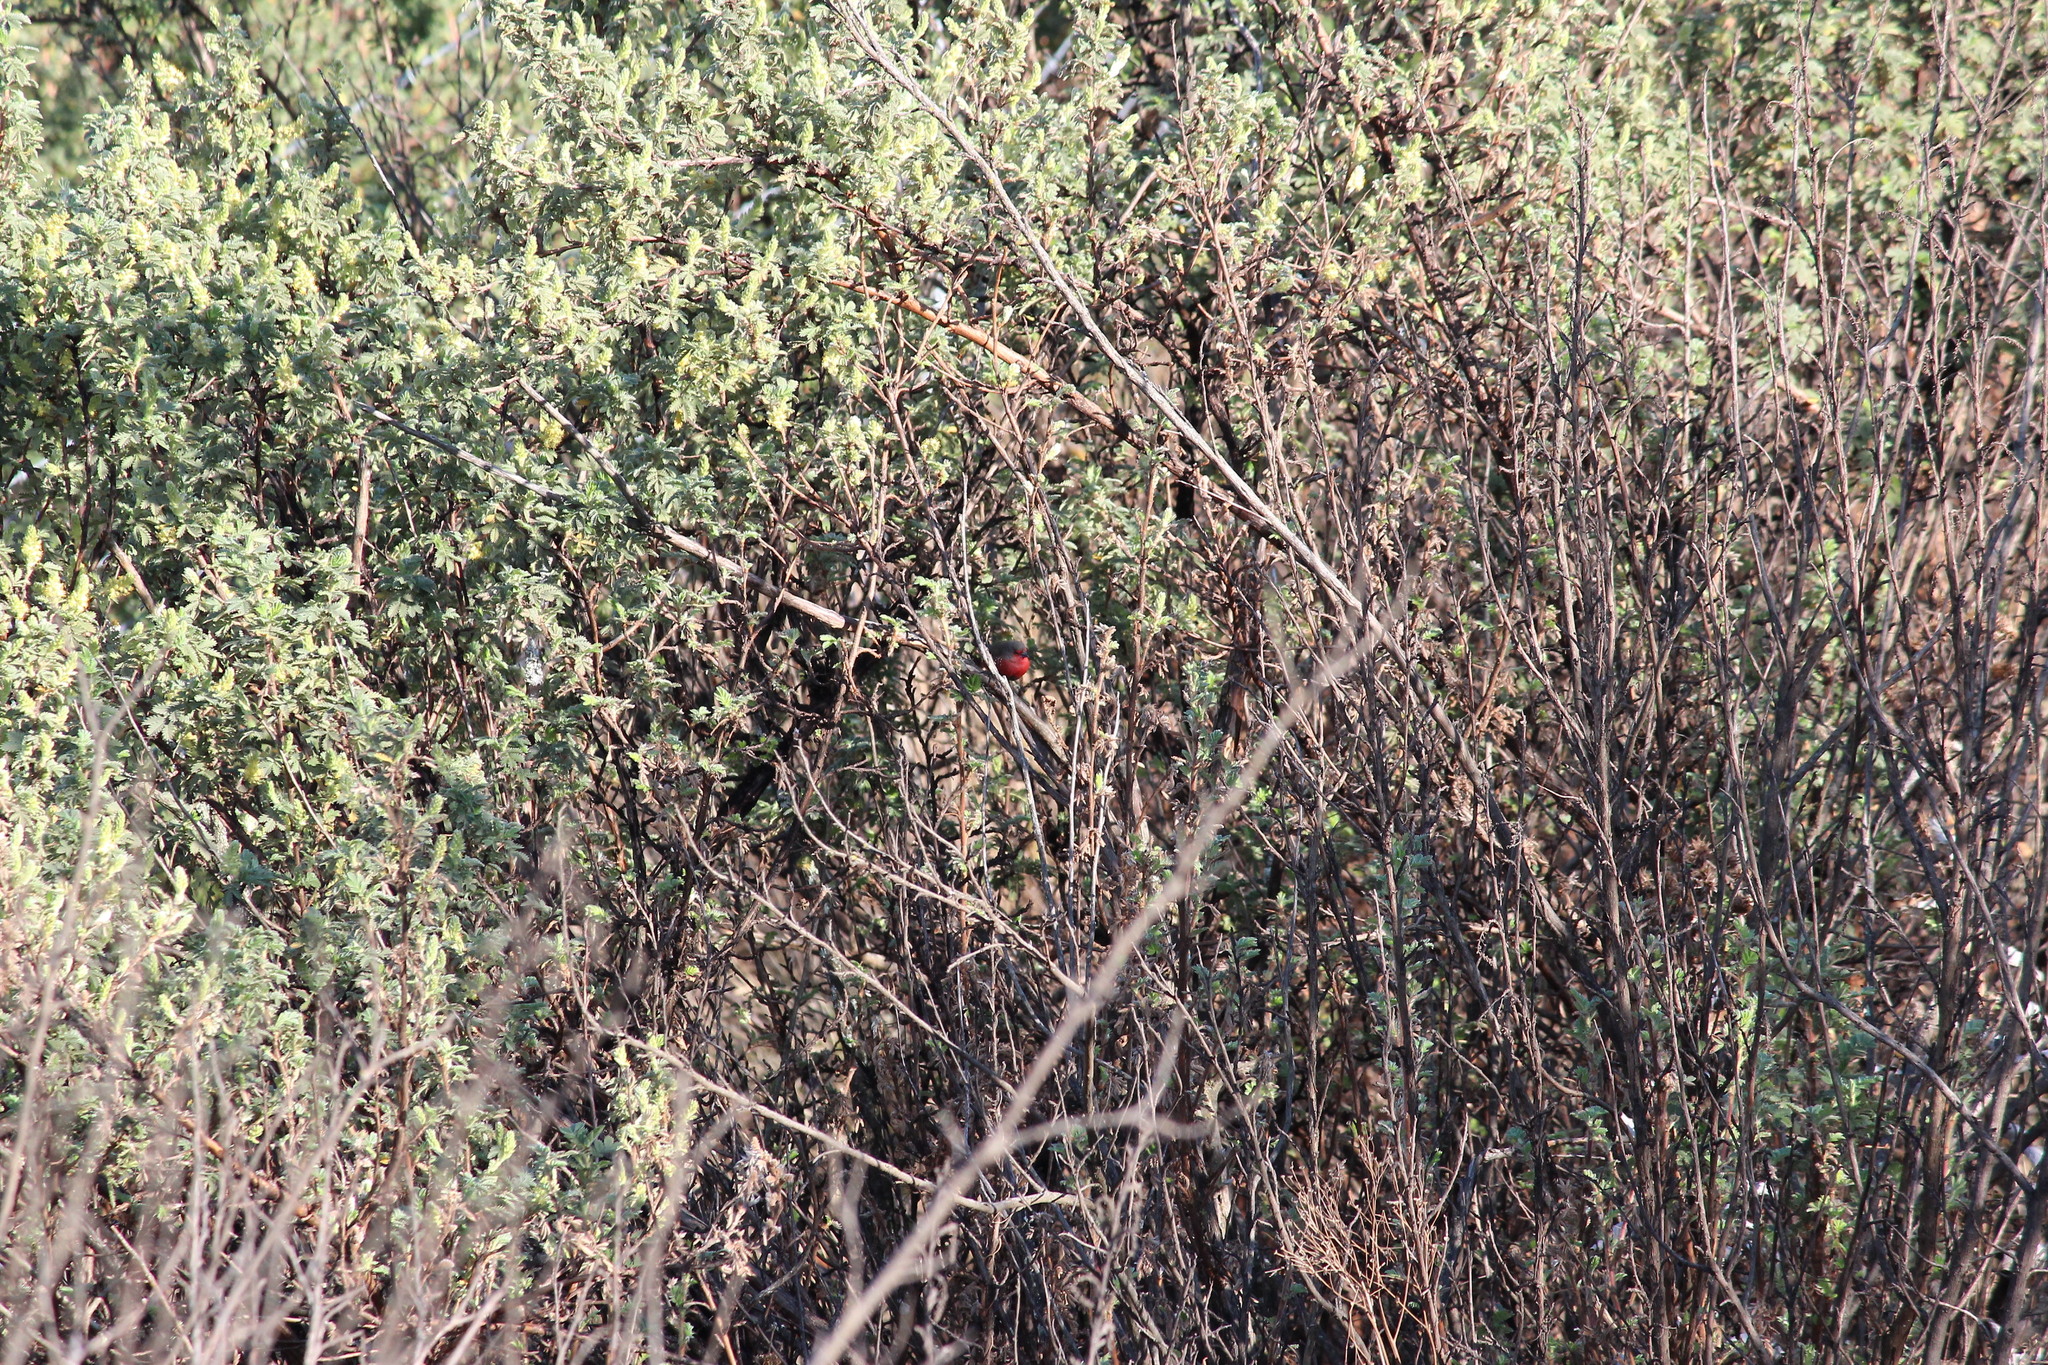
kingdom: Animalia
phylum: Chordata
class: Aves
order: Passeriformes
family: Estrildidae
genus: Lagonosticta
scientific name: Lagonosticta rubricata
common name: African firefinch
